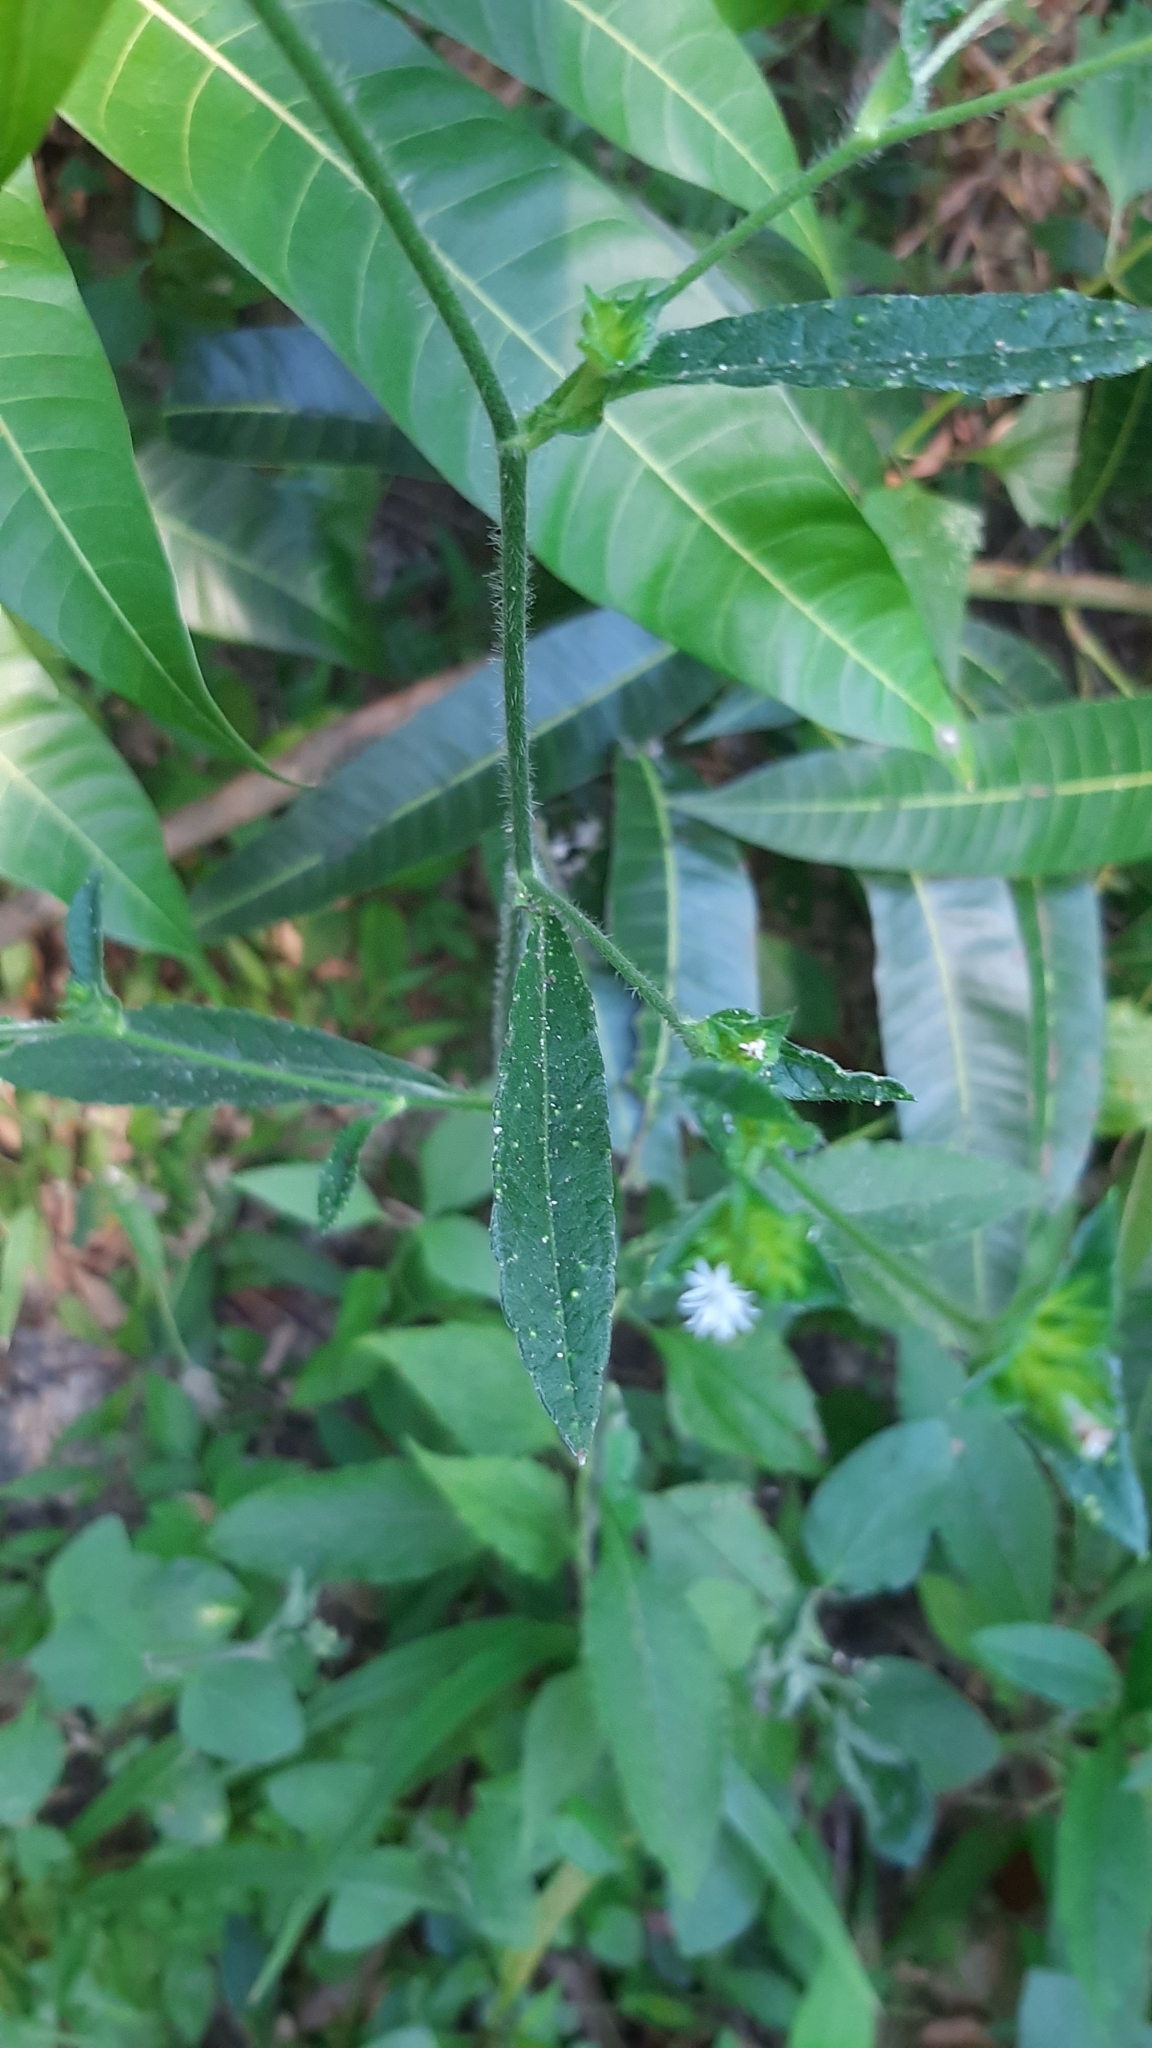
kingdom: Plantae
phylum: Tracheophyta
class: Magnoliopsida
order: Asterales
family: Asteraceae
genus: Elephantopus
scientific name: Elephantopus mollis
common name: Soft elephantsfoot
